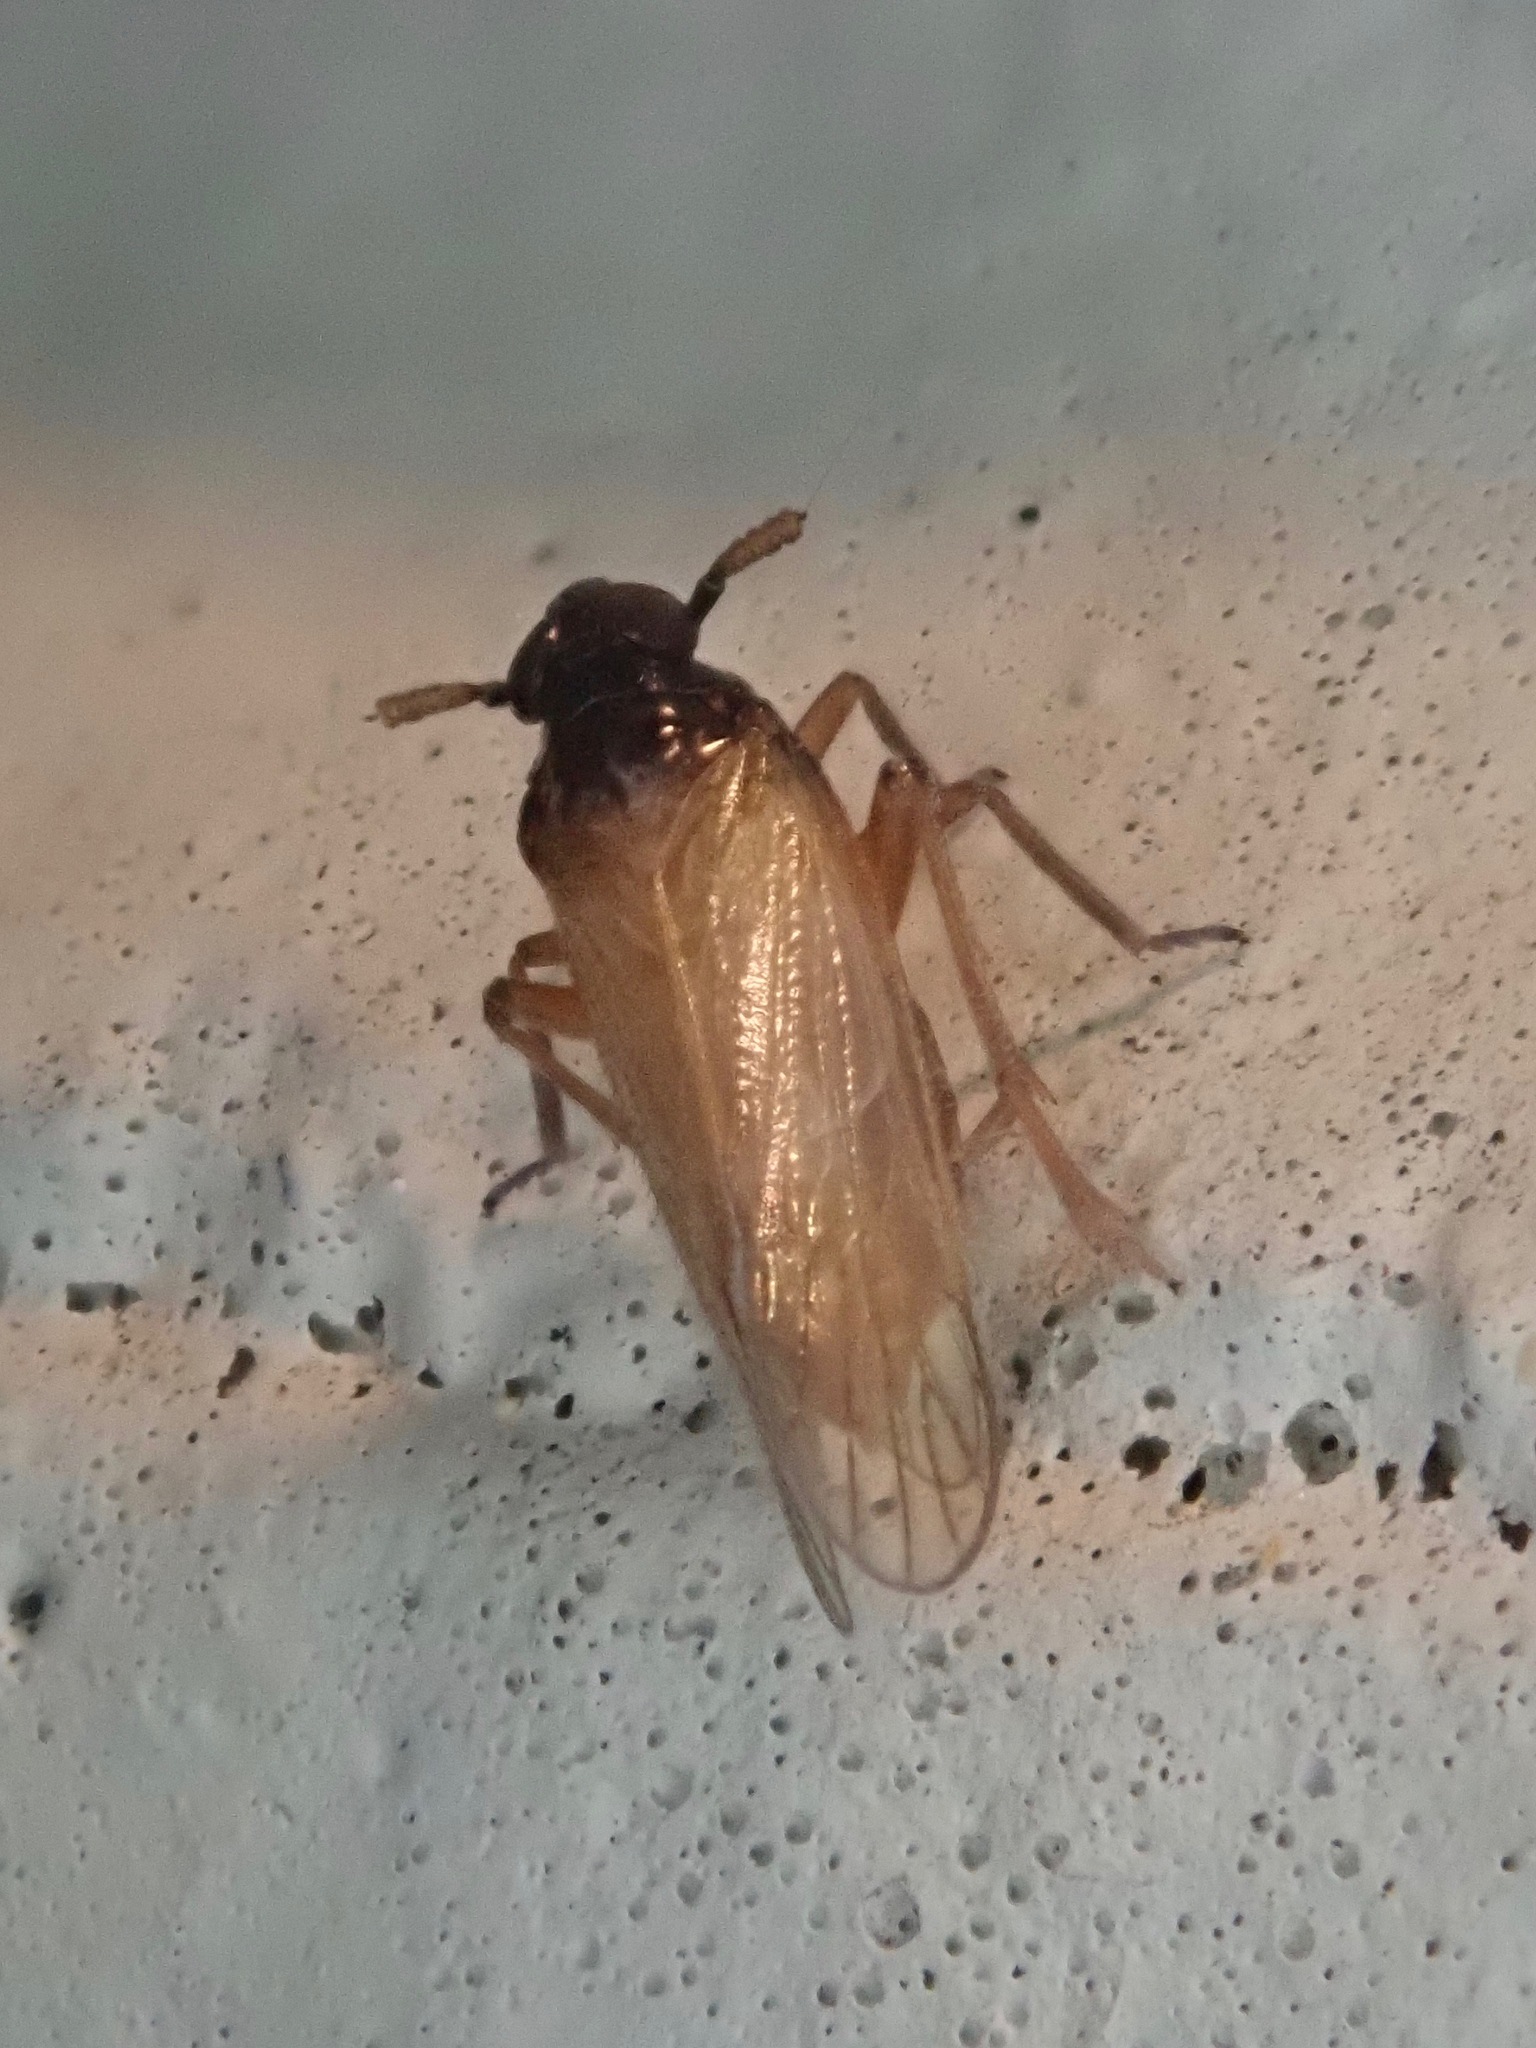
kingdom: Animalia
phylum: Arthropoda
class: Insecta
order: Hemiptera
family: Delphacidae
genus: Penepissonotus
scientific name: Penepissonotus bicolor
